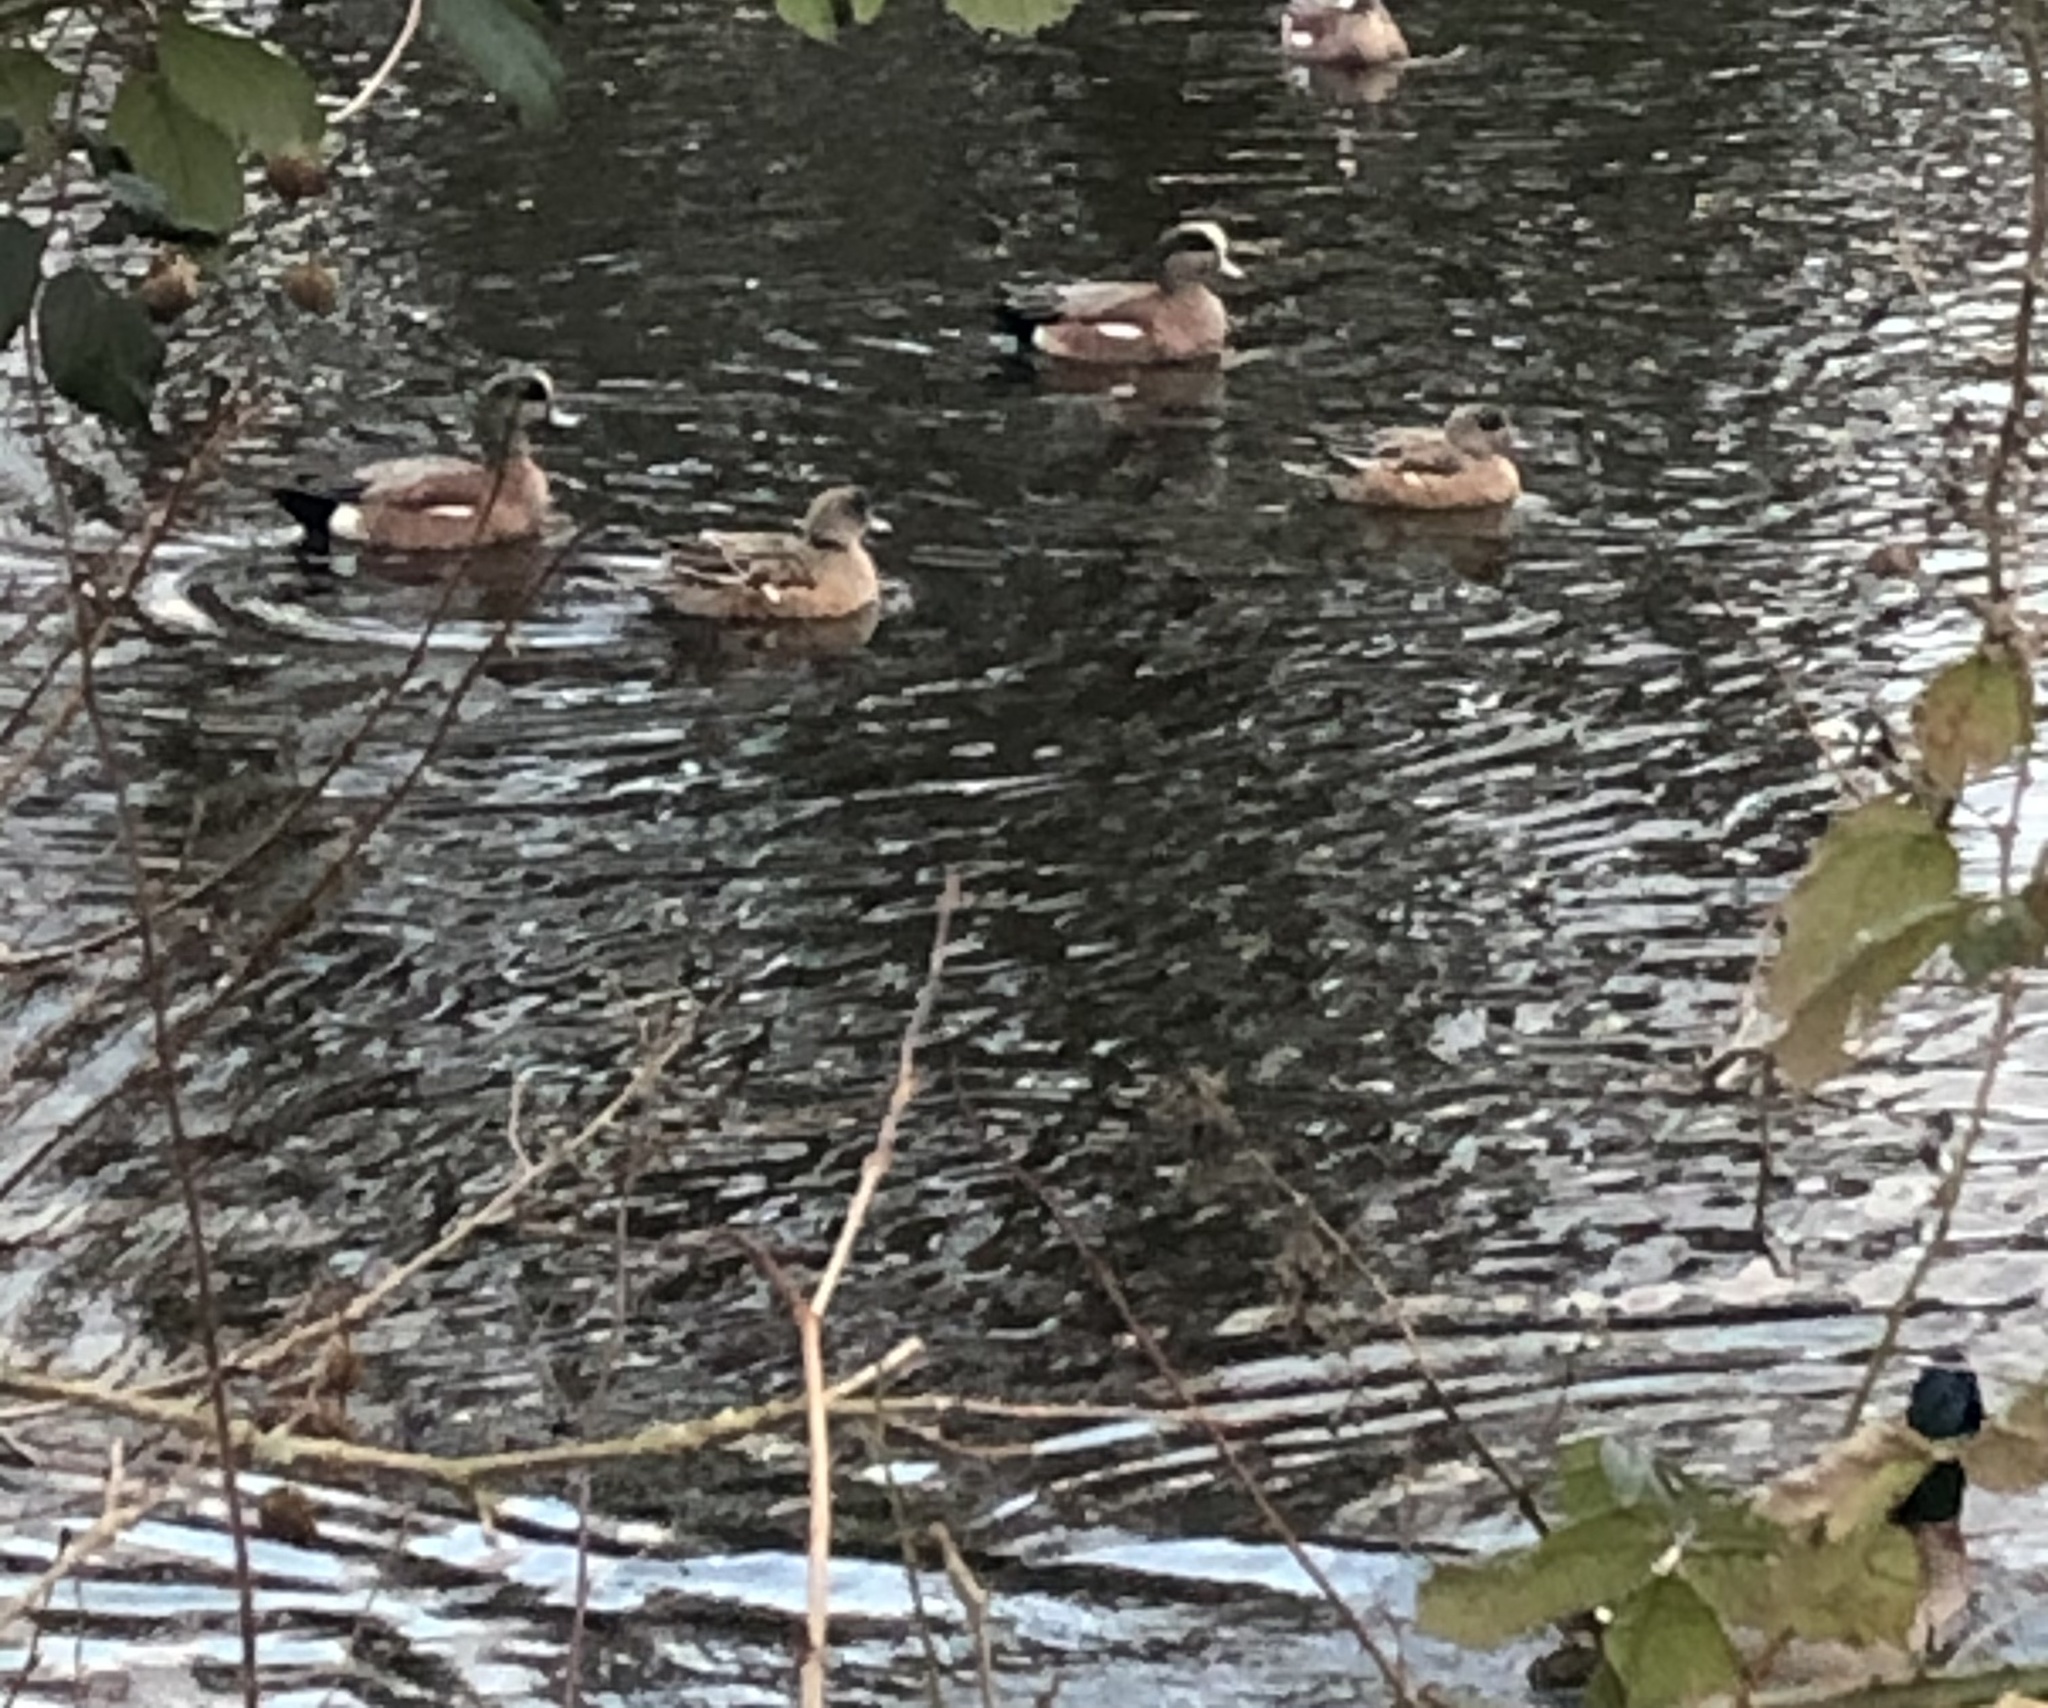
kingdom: Animalia
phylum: Chordata
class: Aves
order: Anseriformes
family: Anatidae
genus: Mareca
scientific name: Mareca americana
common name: American wigeon
